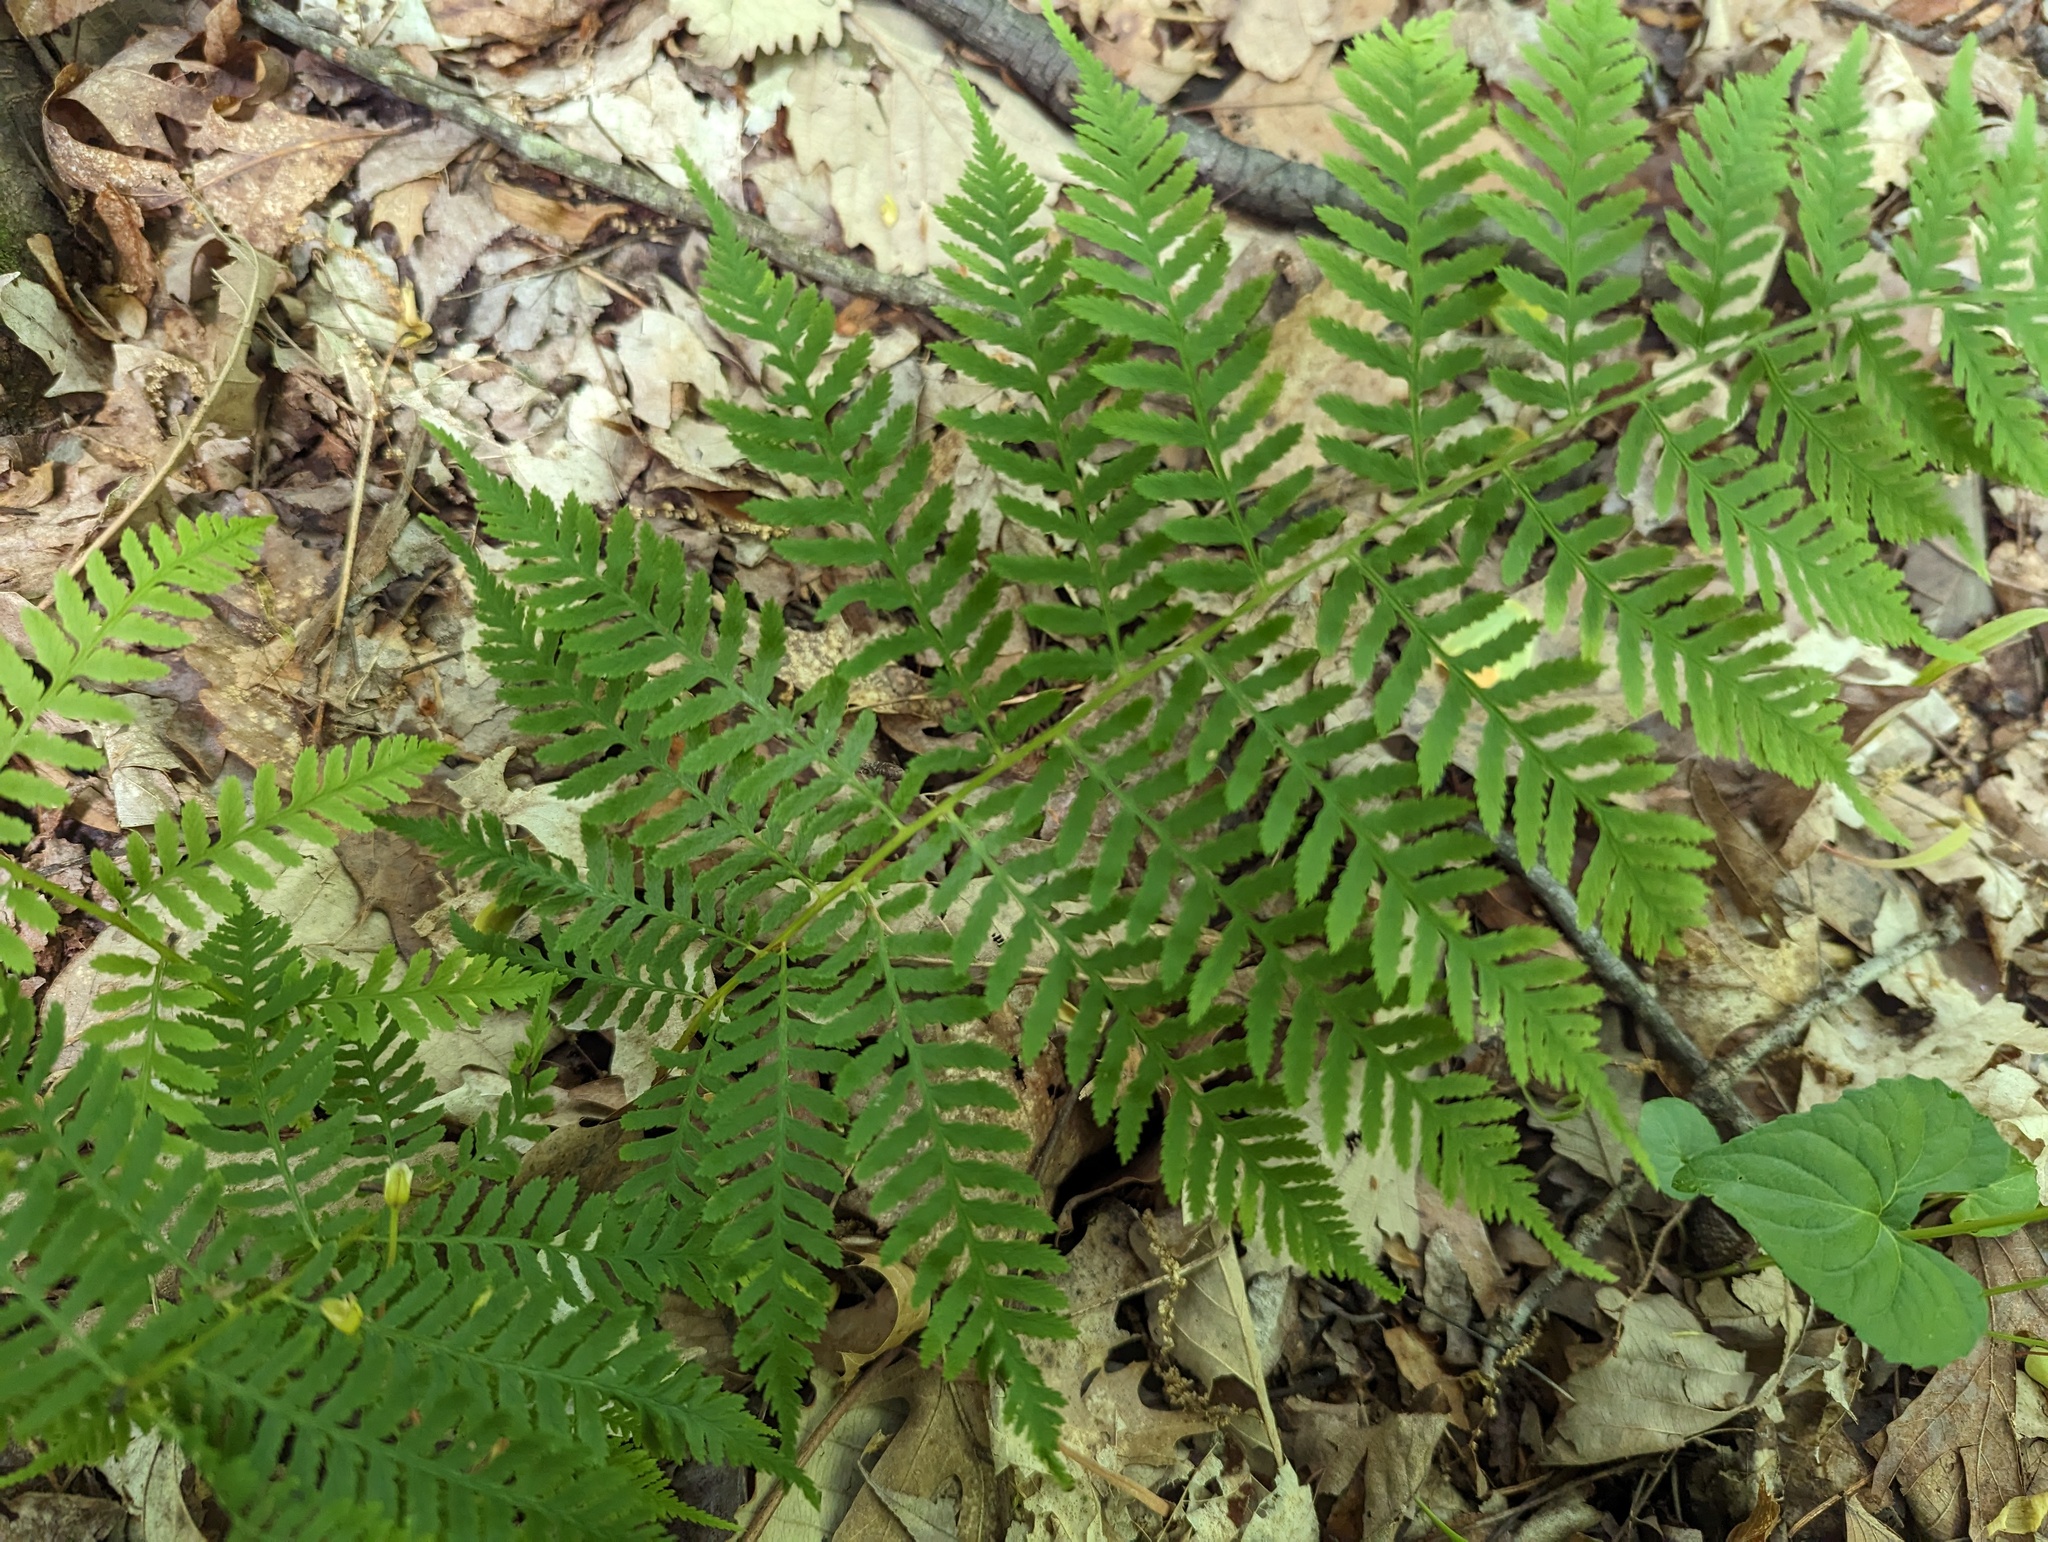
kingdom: Plantae
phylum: Tracheophyta
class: Polypodiopsida
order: Polypodiales
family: Athyriaceae
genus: Athyrium
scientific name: Athyrium asplenioides
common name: Southern lady fern
